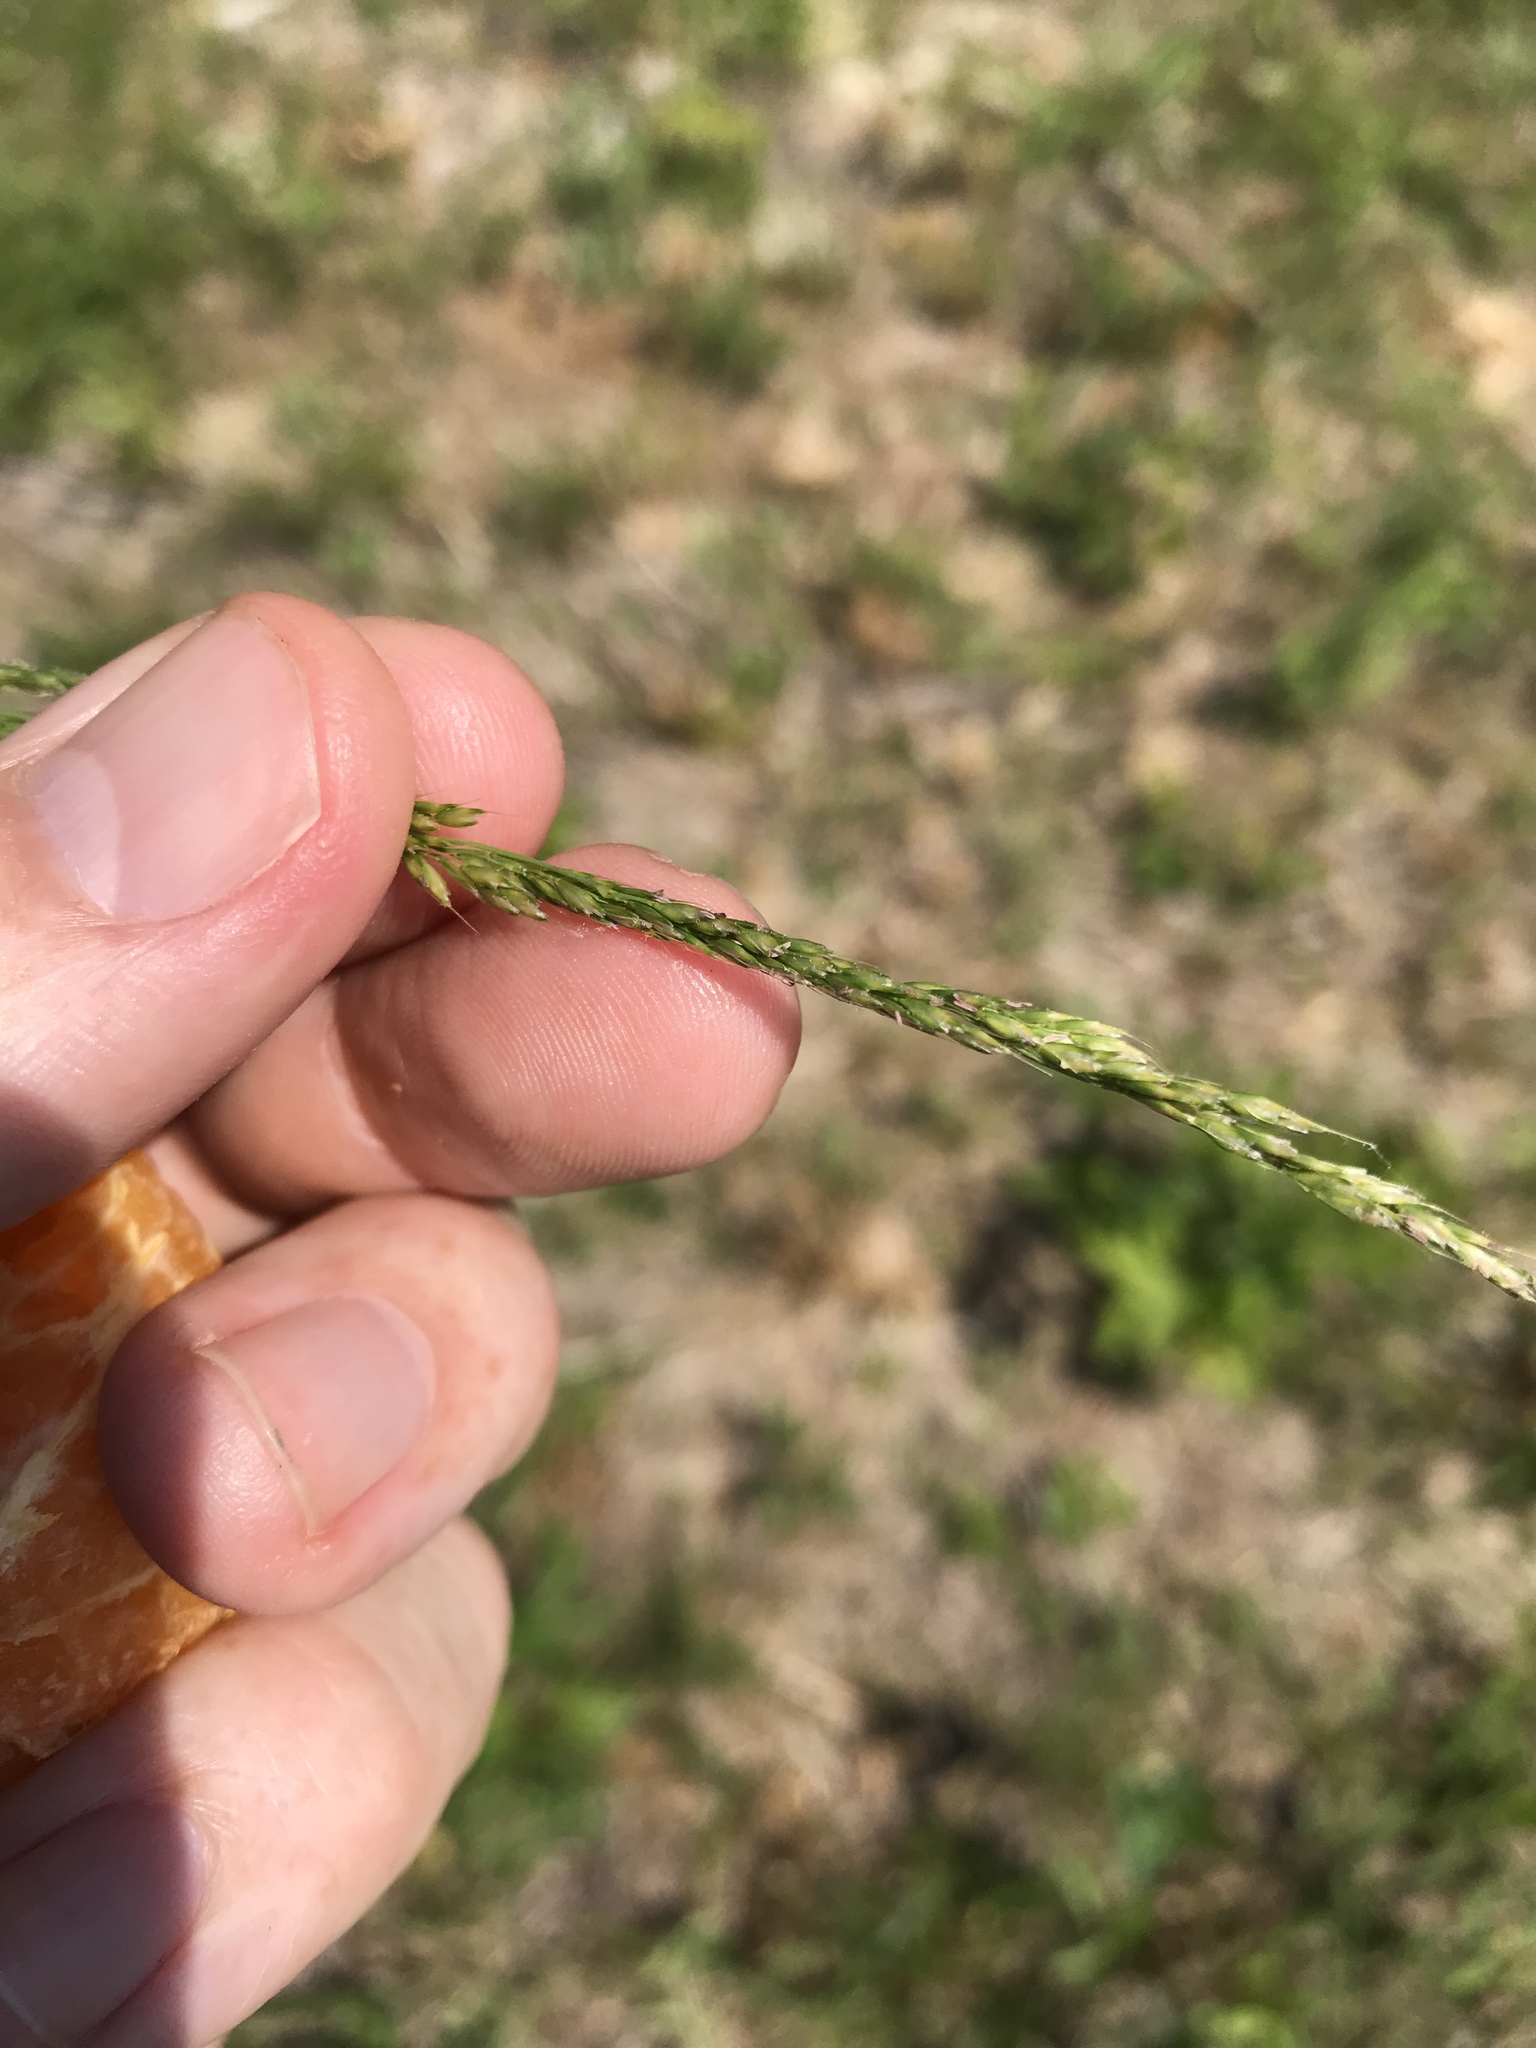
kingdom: Plantae
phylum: Tracheophyta
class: Liliopsida
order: Poales
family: Poaceae
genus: Sphenopholis
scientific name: Sphenopholis filiformis
